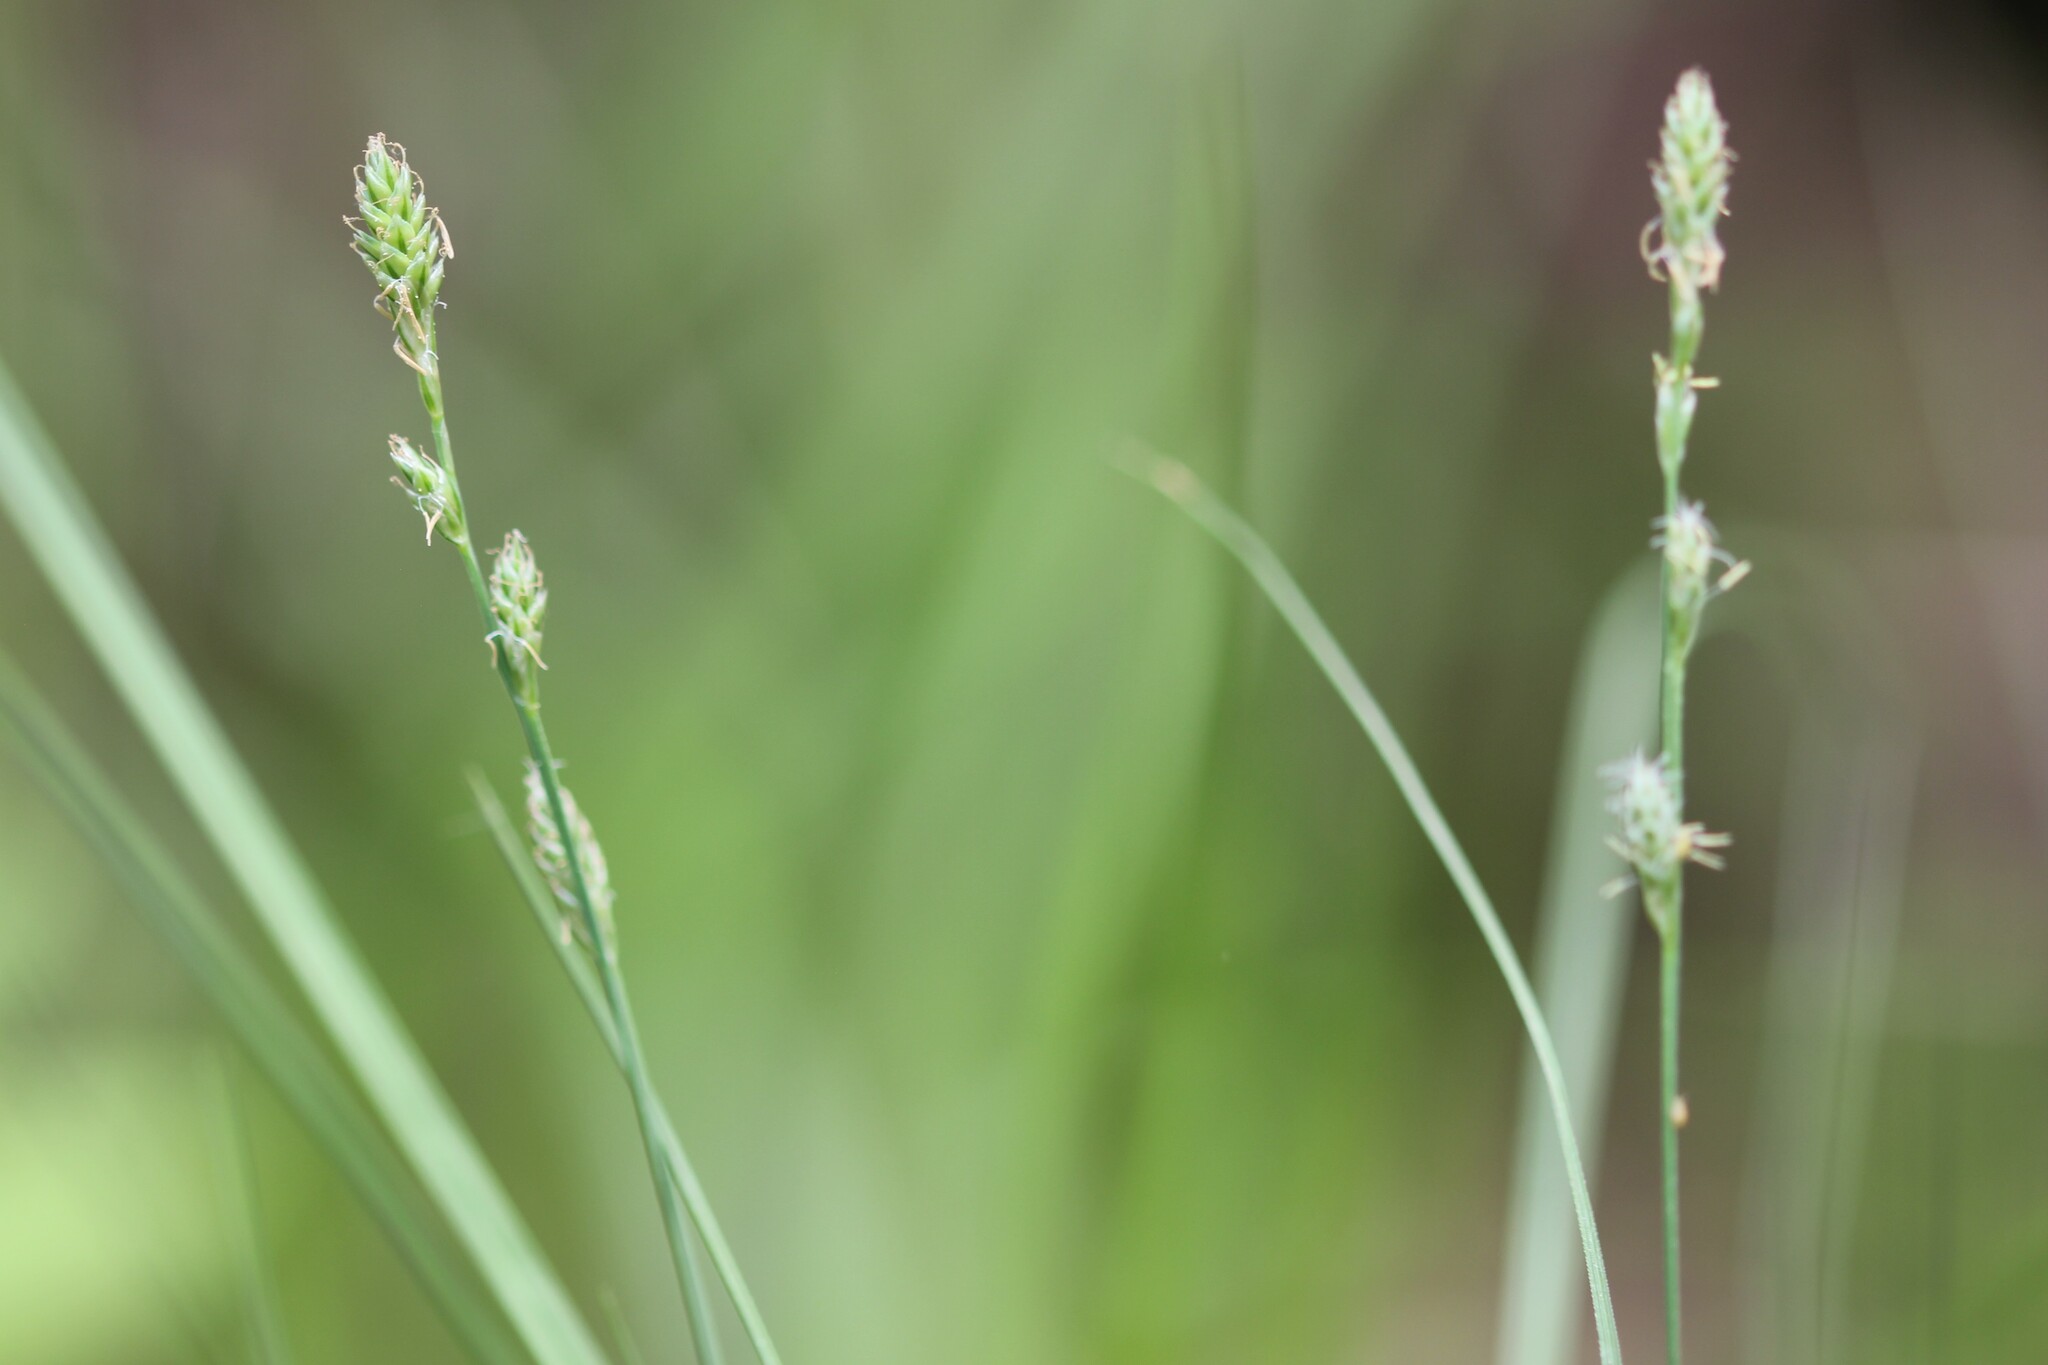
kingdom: Plantae
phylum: Tracheophyta
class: Liliopsida
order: Poales
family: Cyperaceae
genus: Carex
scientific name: Carex canescens
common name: White sedge
